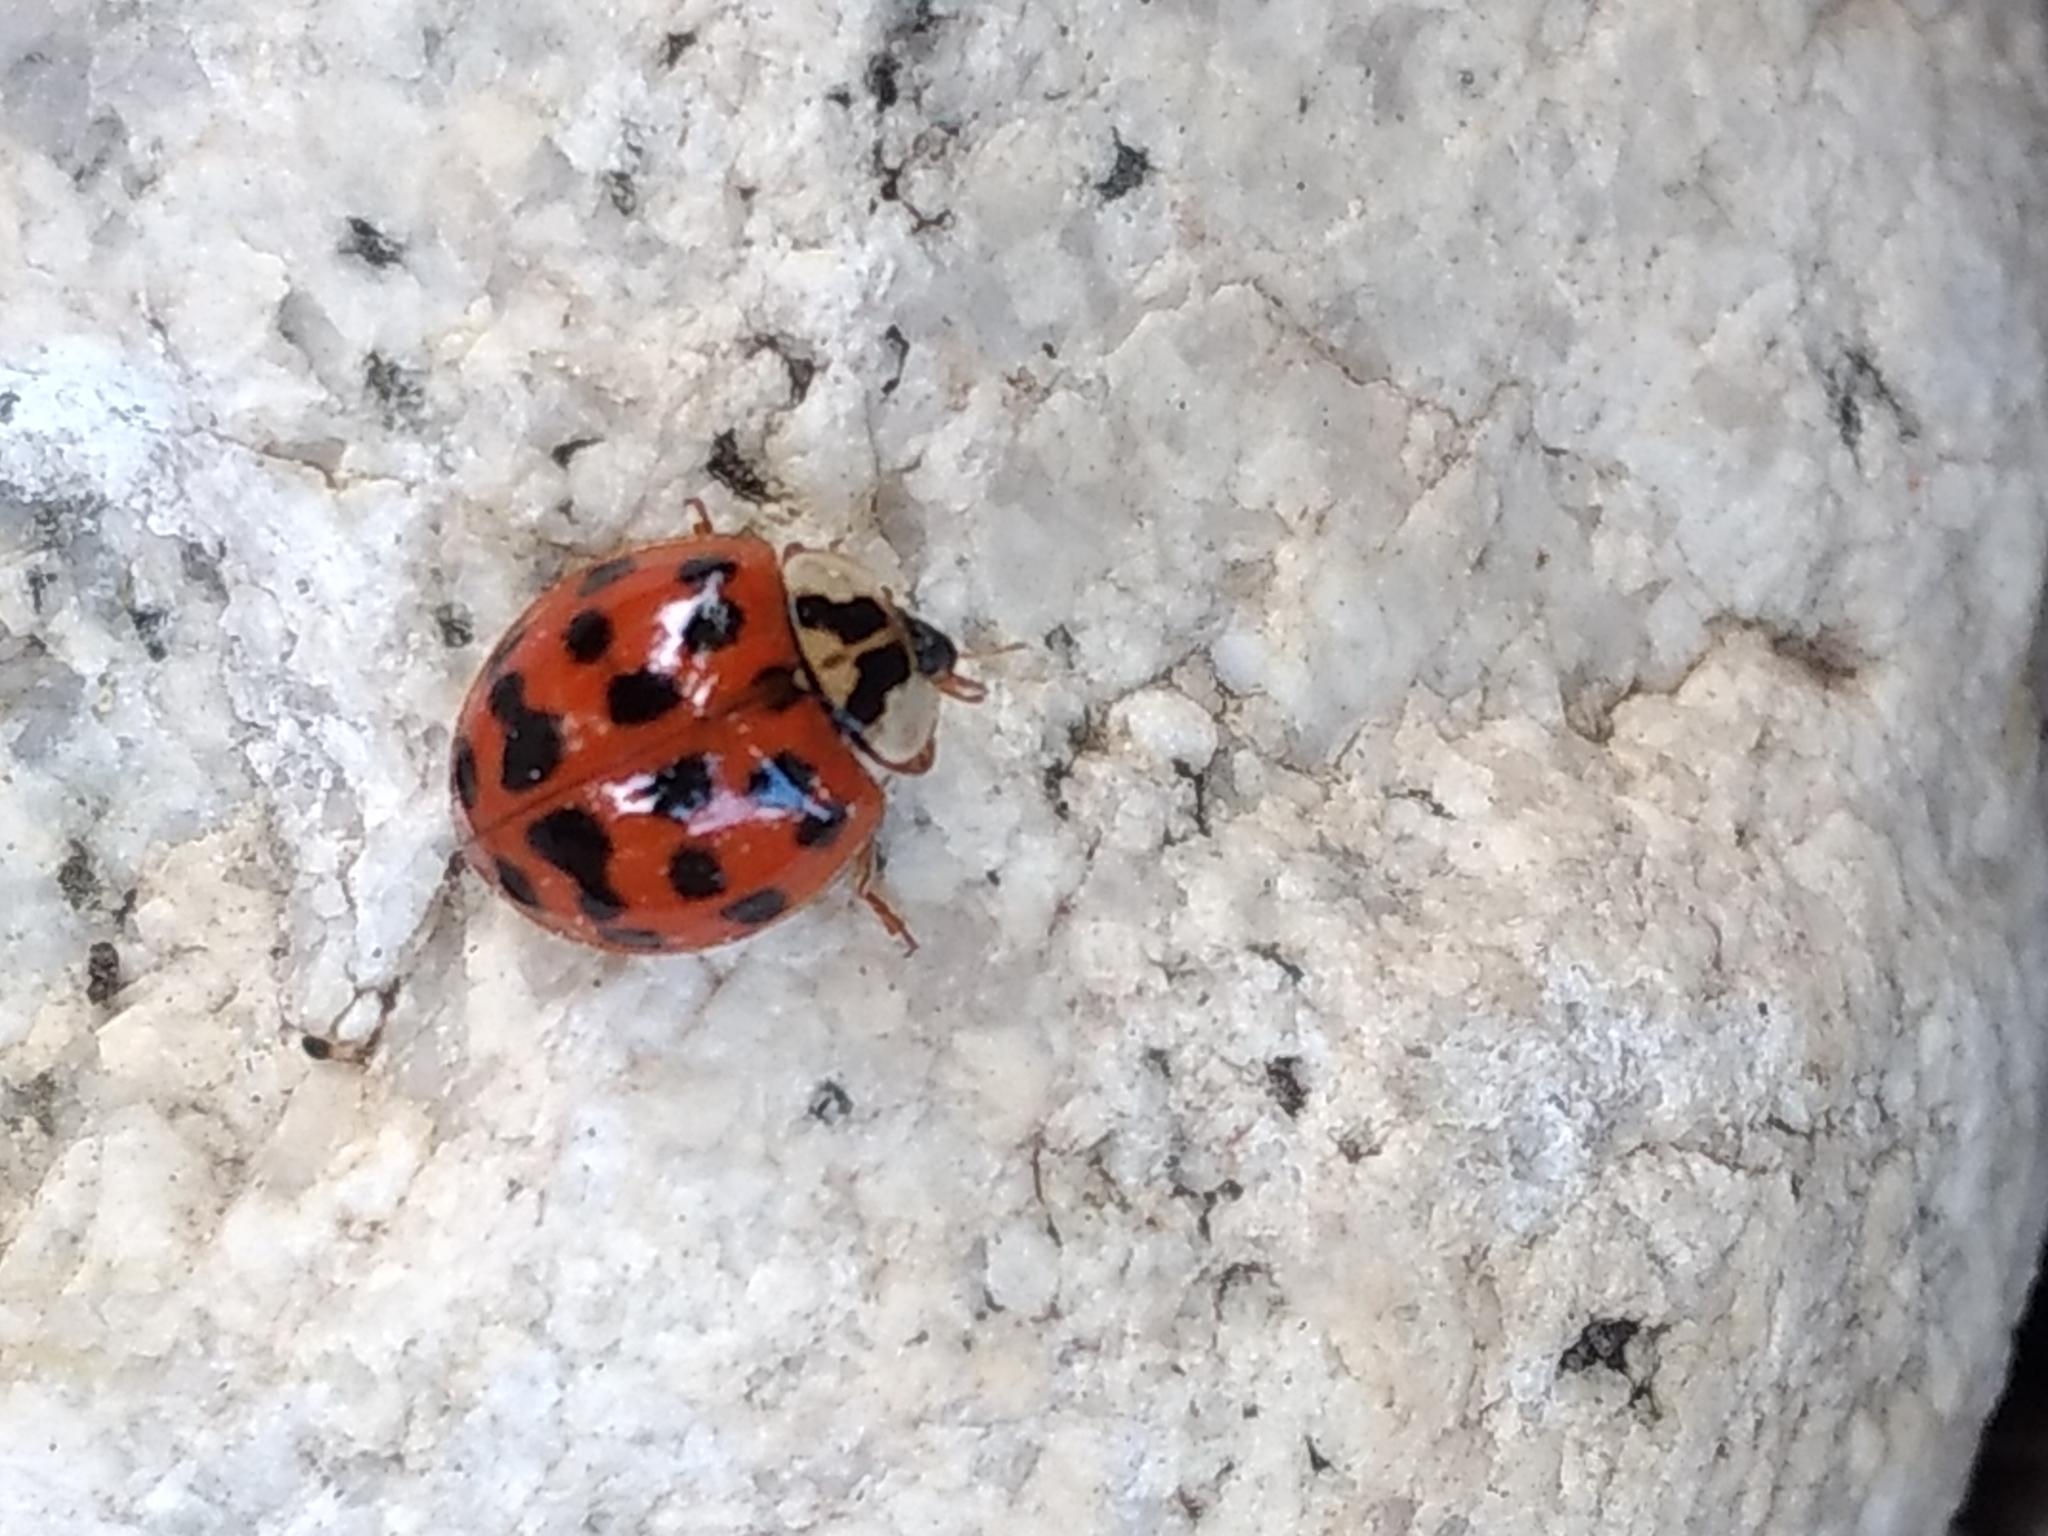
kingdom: Animalia
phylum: Arthropoda
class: Insecta
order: Coleoptera
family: Coccinellidae
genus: Harmonia
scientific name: Harmonia axyridis
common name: Harlequin ladybird
